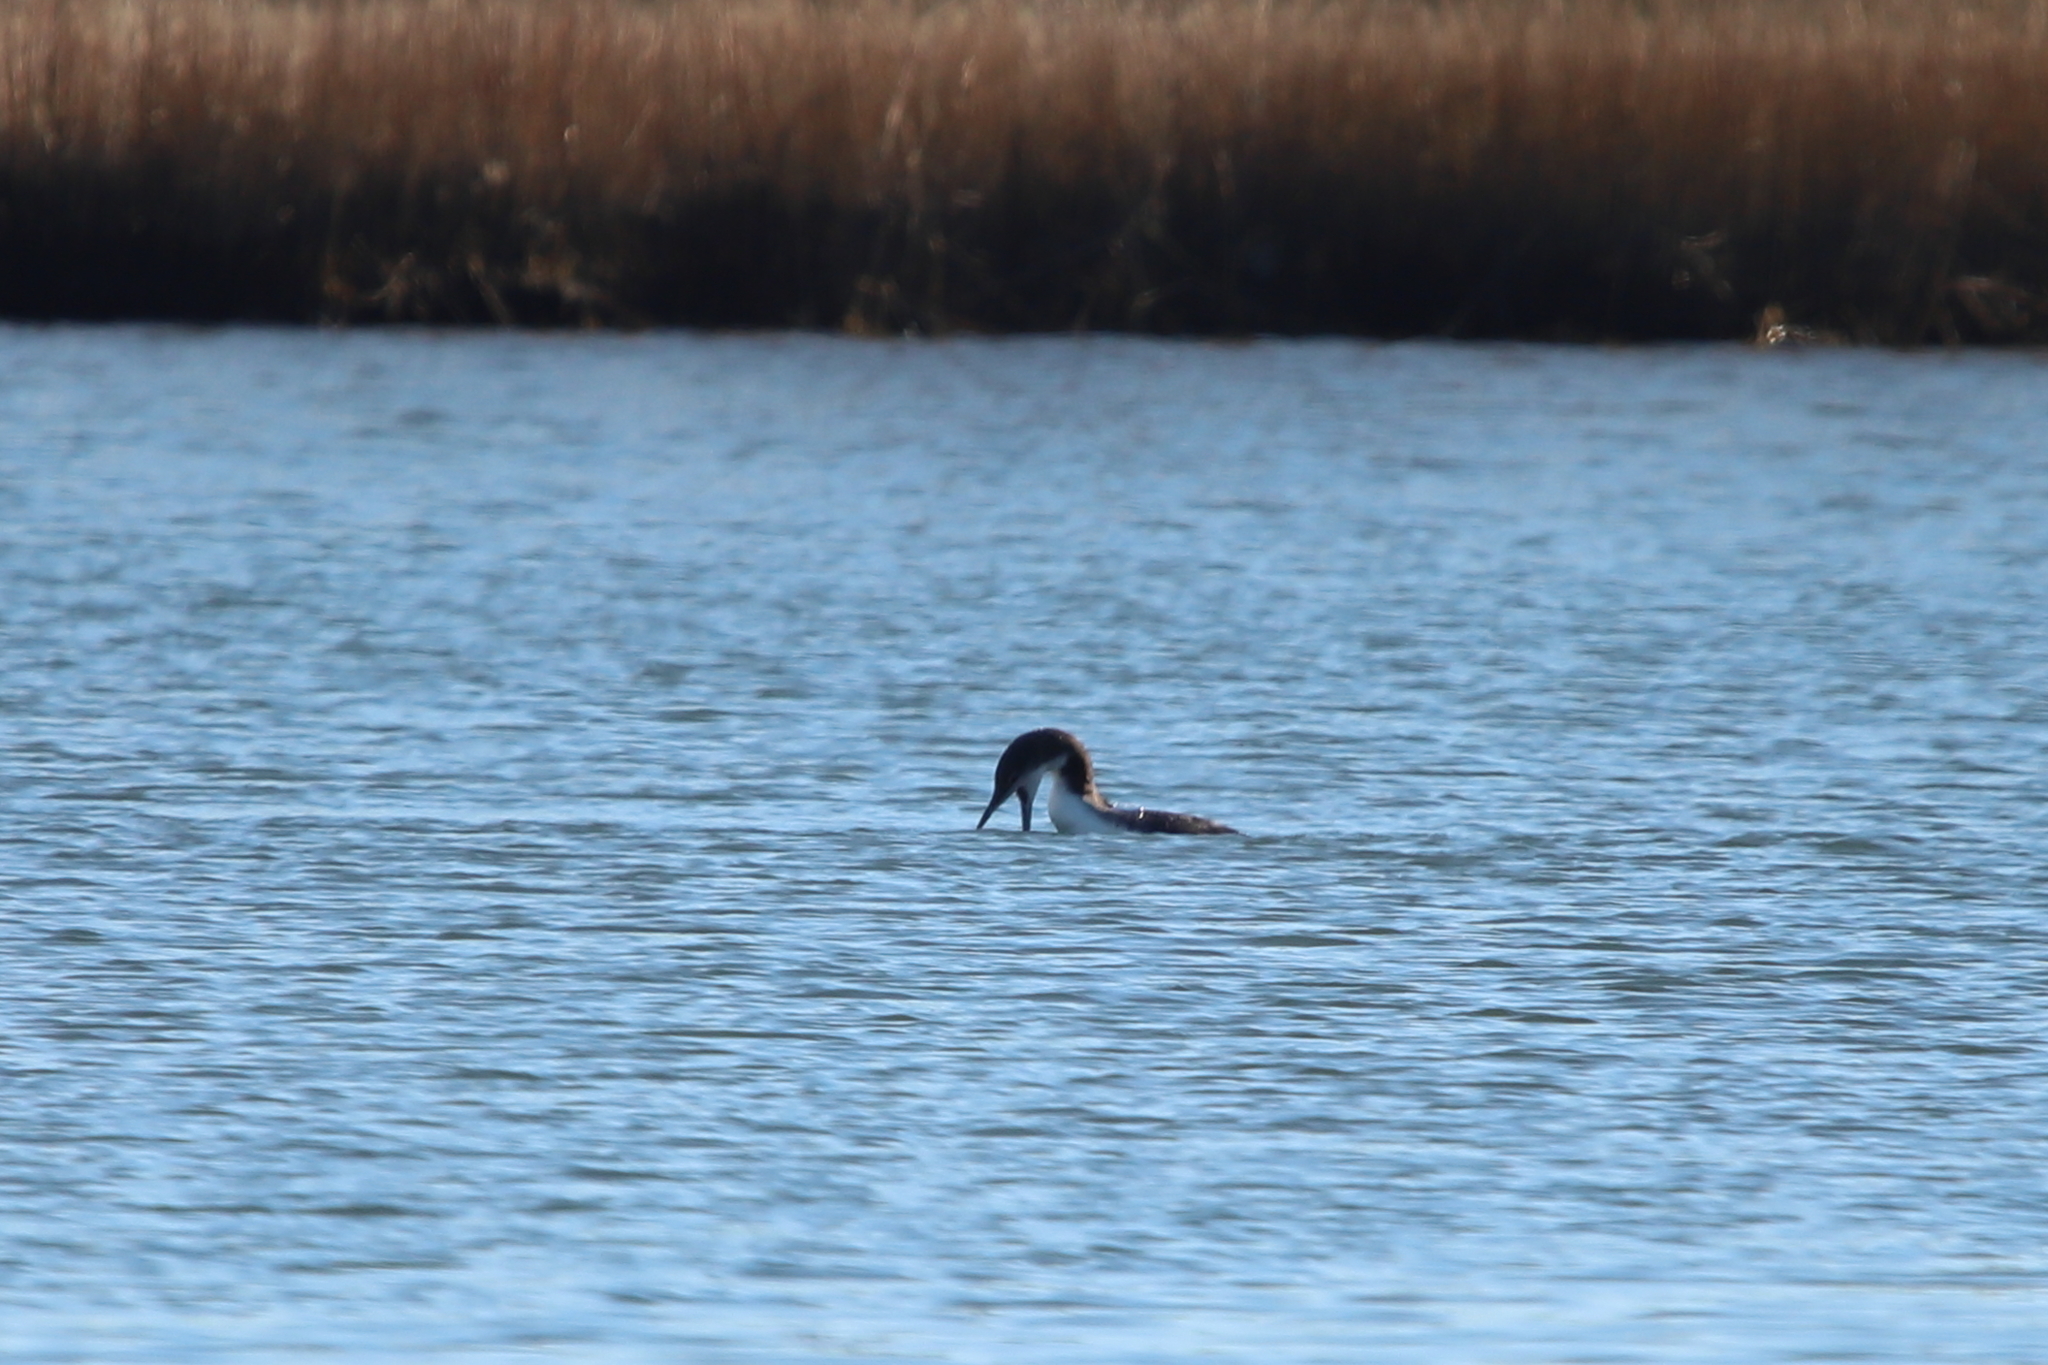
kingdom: Animalia
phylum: Chordata
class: Aves
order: Gaviiformes
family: Gaviidae
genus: Gavia
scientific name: Gavia immer
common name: Common loon
